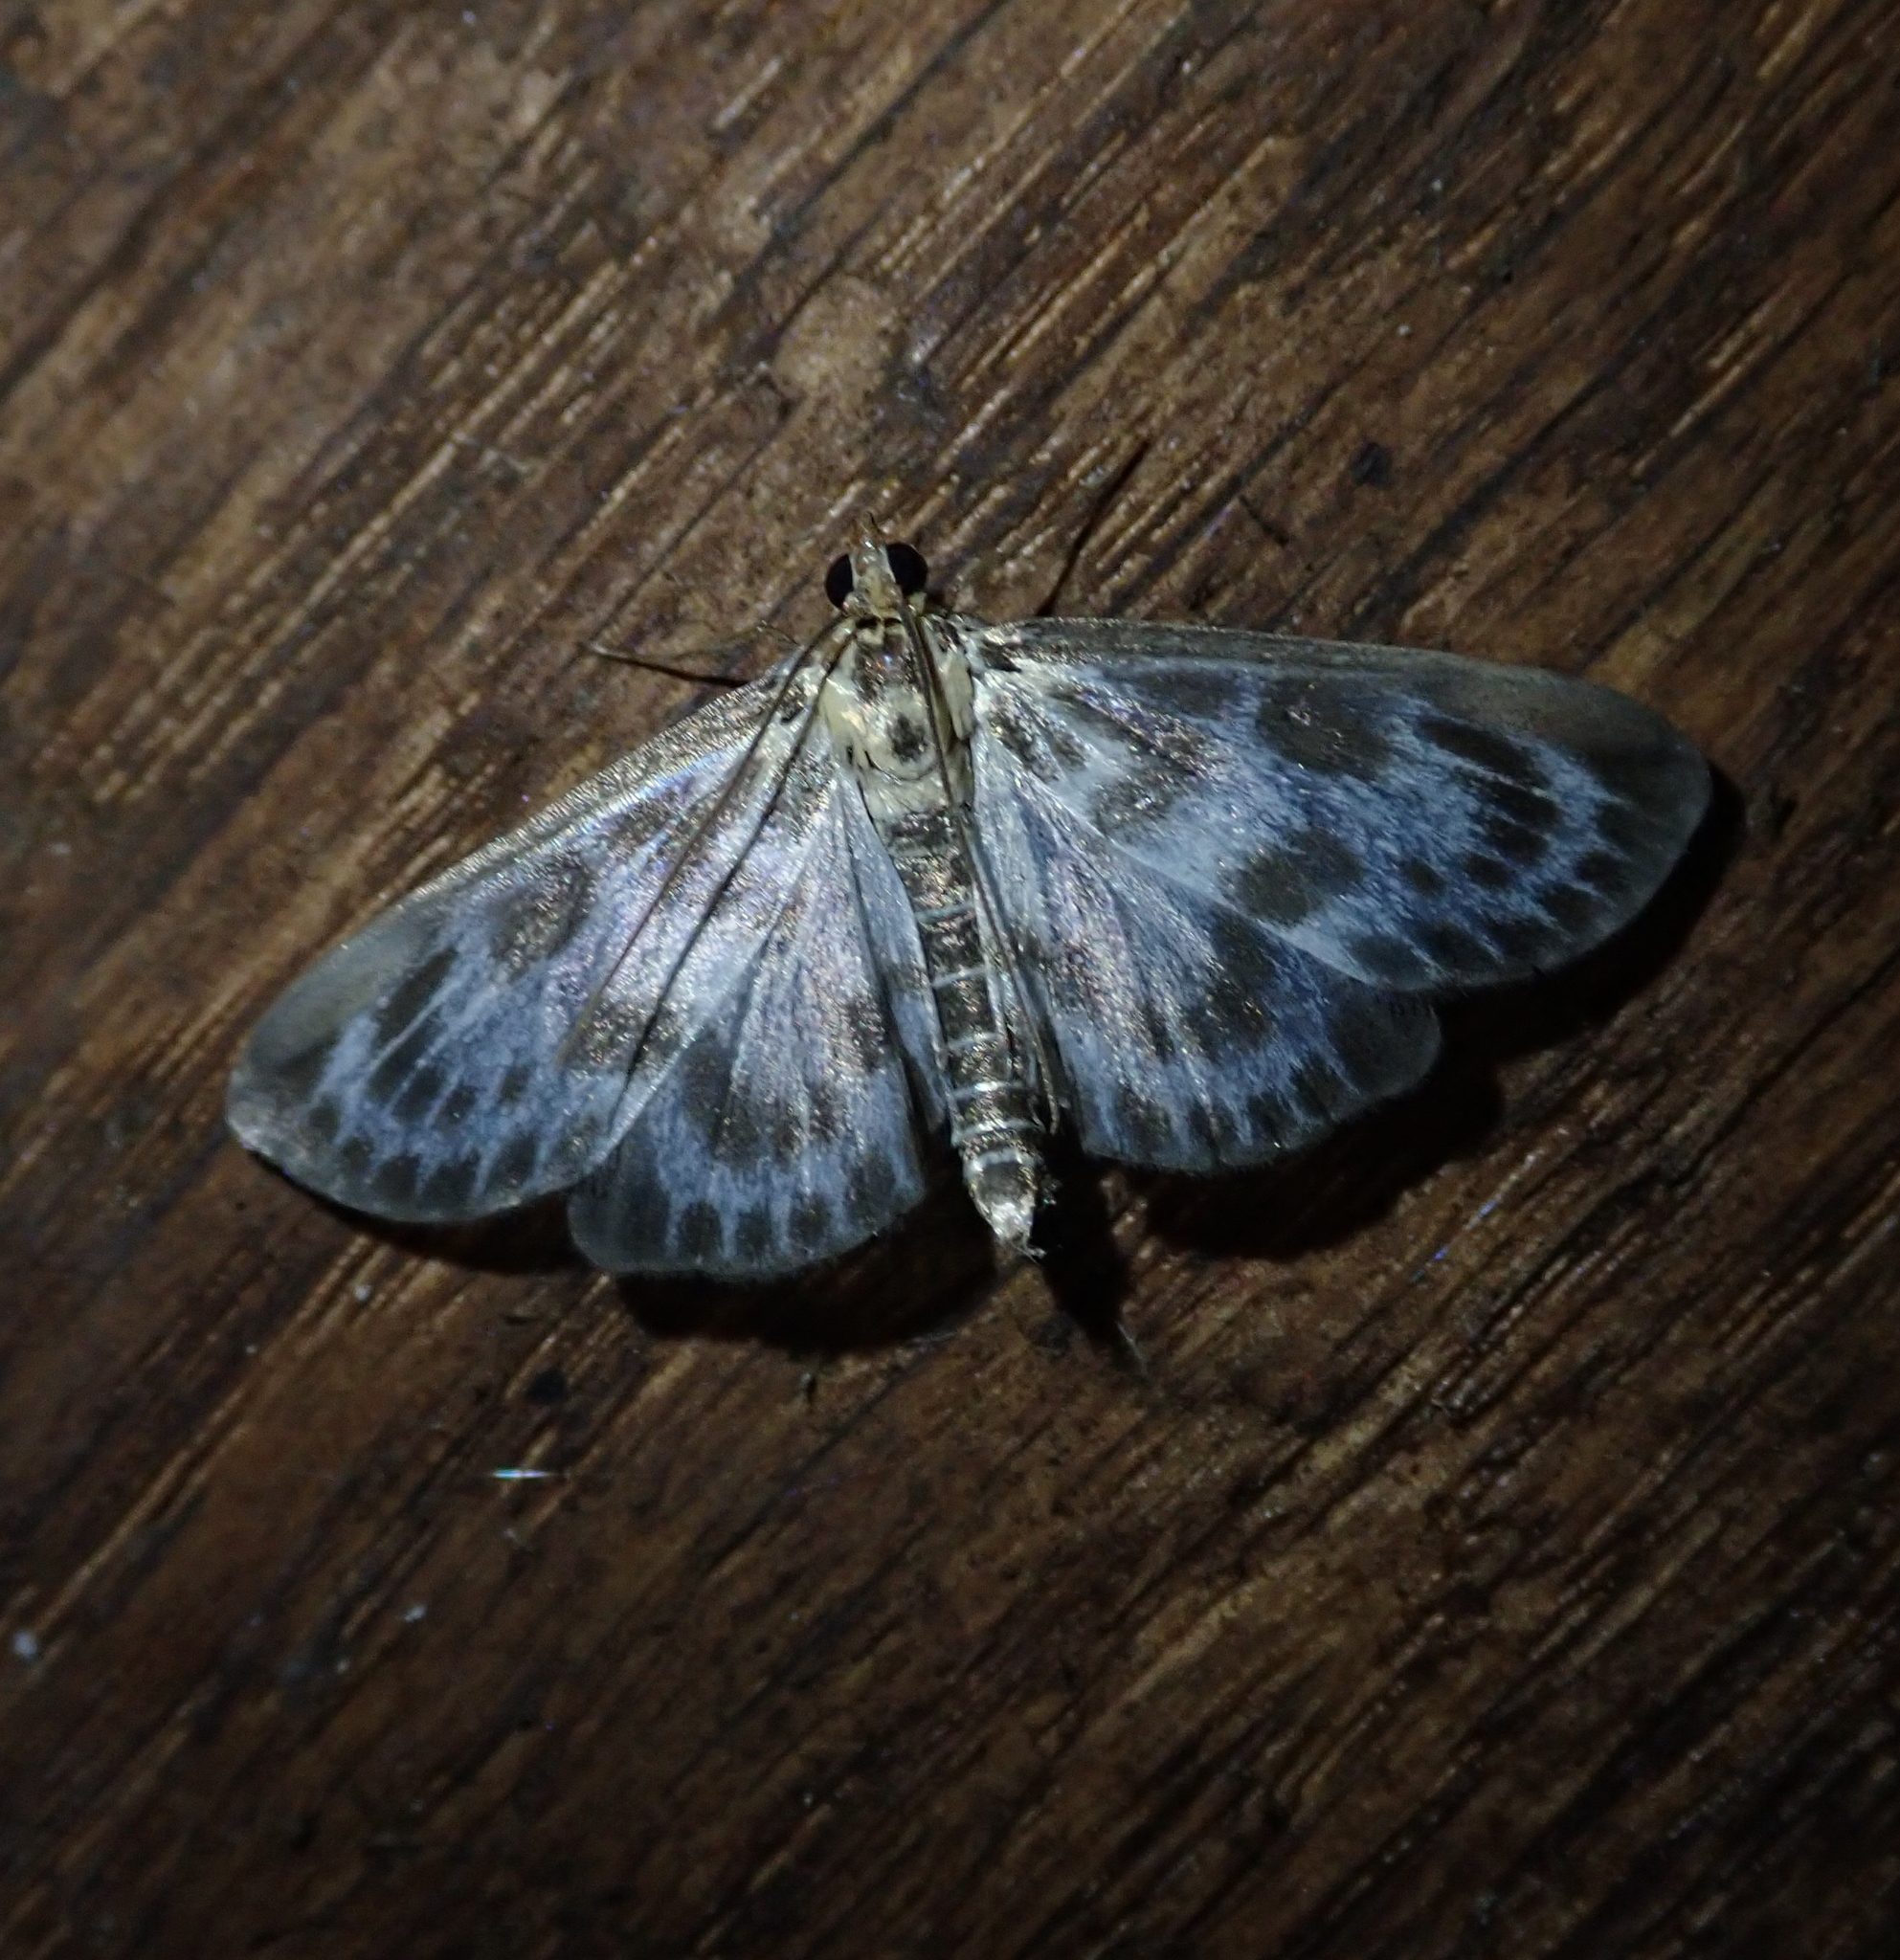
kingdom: Animalia
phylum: Arthropoda
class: Insecta
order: Lepidoptera
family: Crambidae
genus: Anania
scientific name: Anania hortulata
